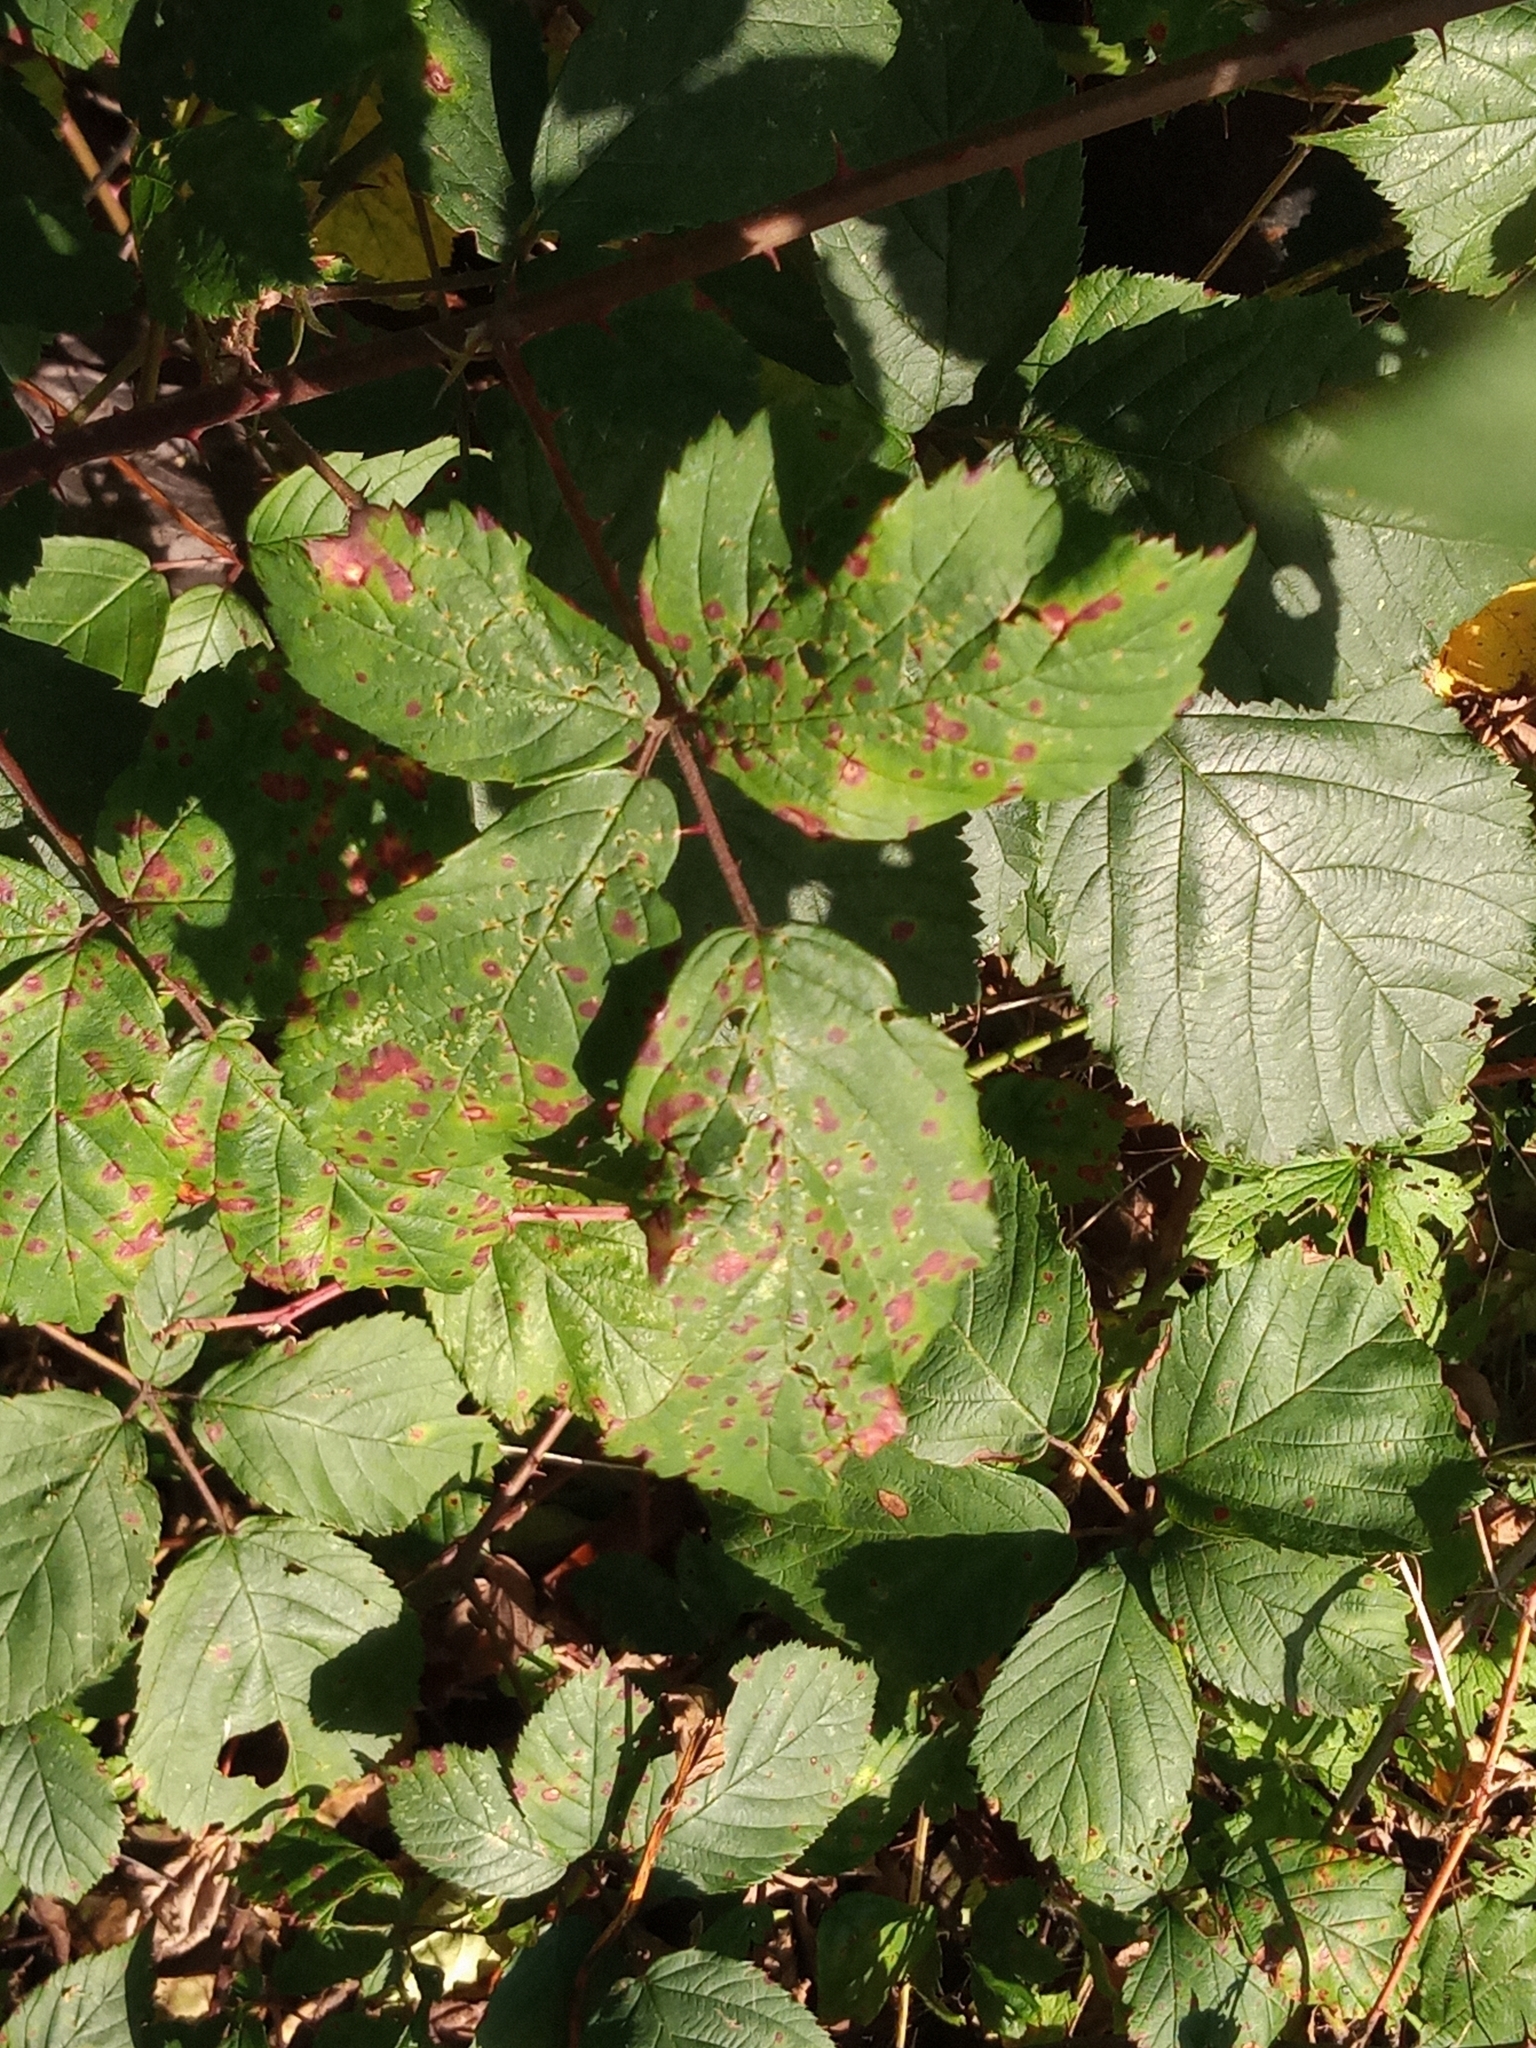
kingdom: Fungi
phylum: Basidiomycota
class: Pucciniomycetes
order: Pucciniales
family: Phragmidiaceae
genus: Phragmidium
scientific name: Phragmidium violaceum
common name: Violet bramble rust
